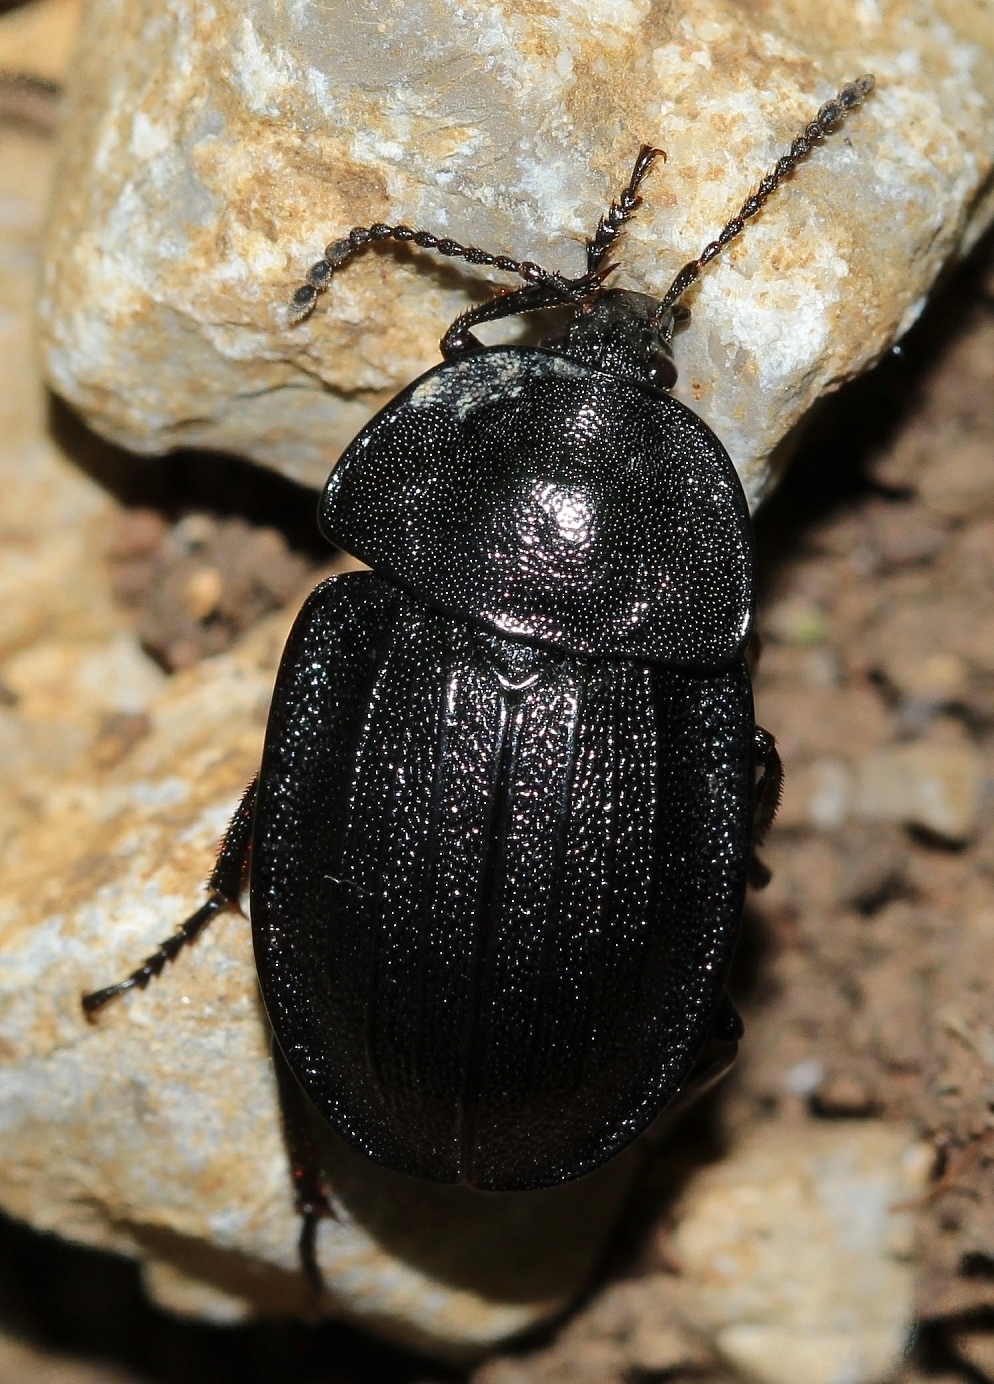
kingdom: Animalia
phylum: Arthropoda
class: Insecta
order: Coleoptera
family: Staphylinidae
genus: Silpha
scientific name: Silpha atrata
